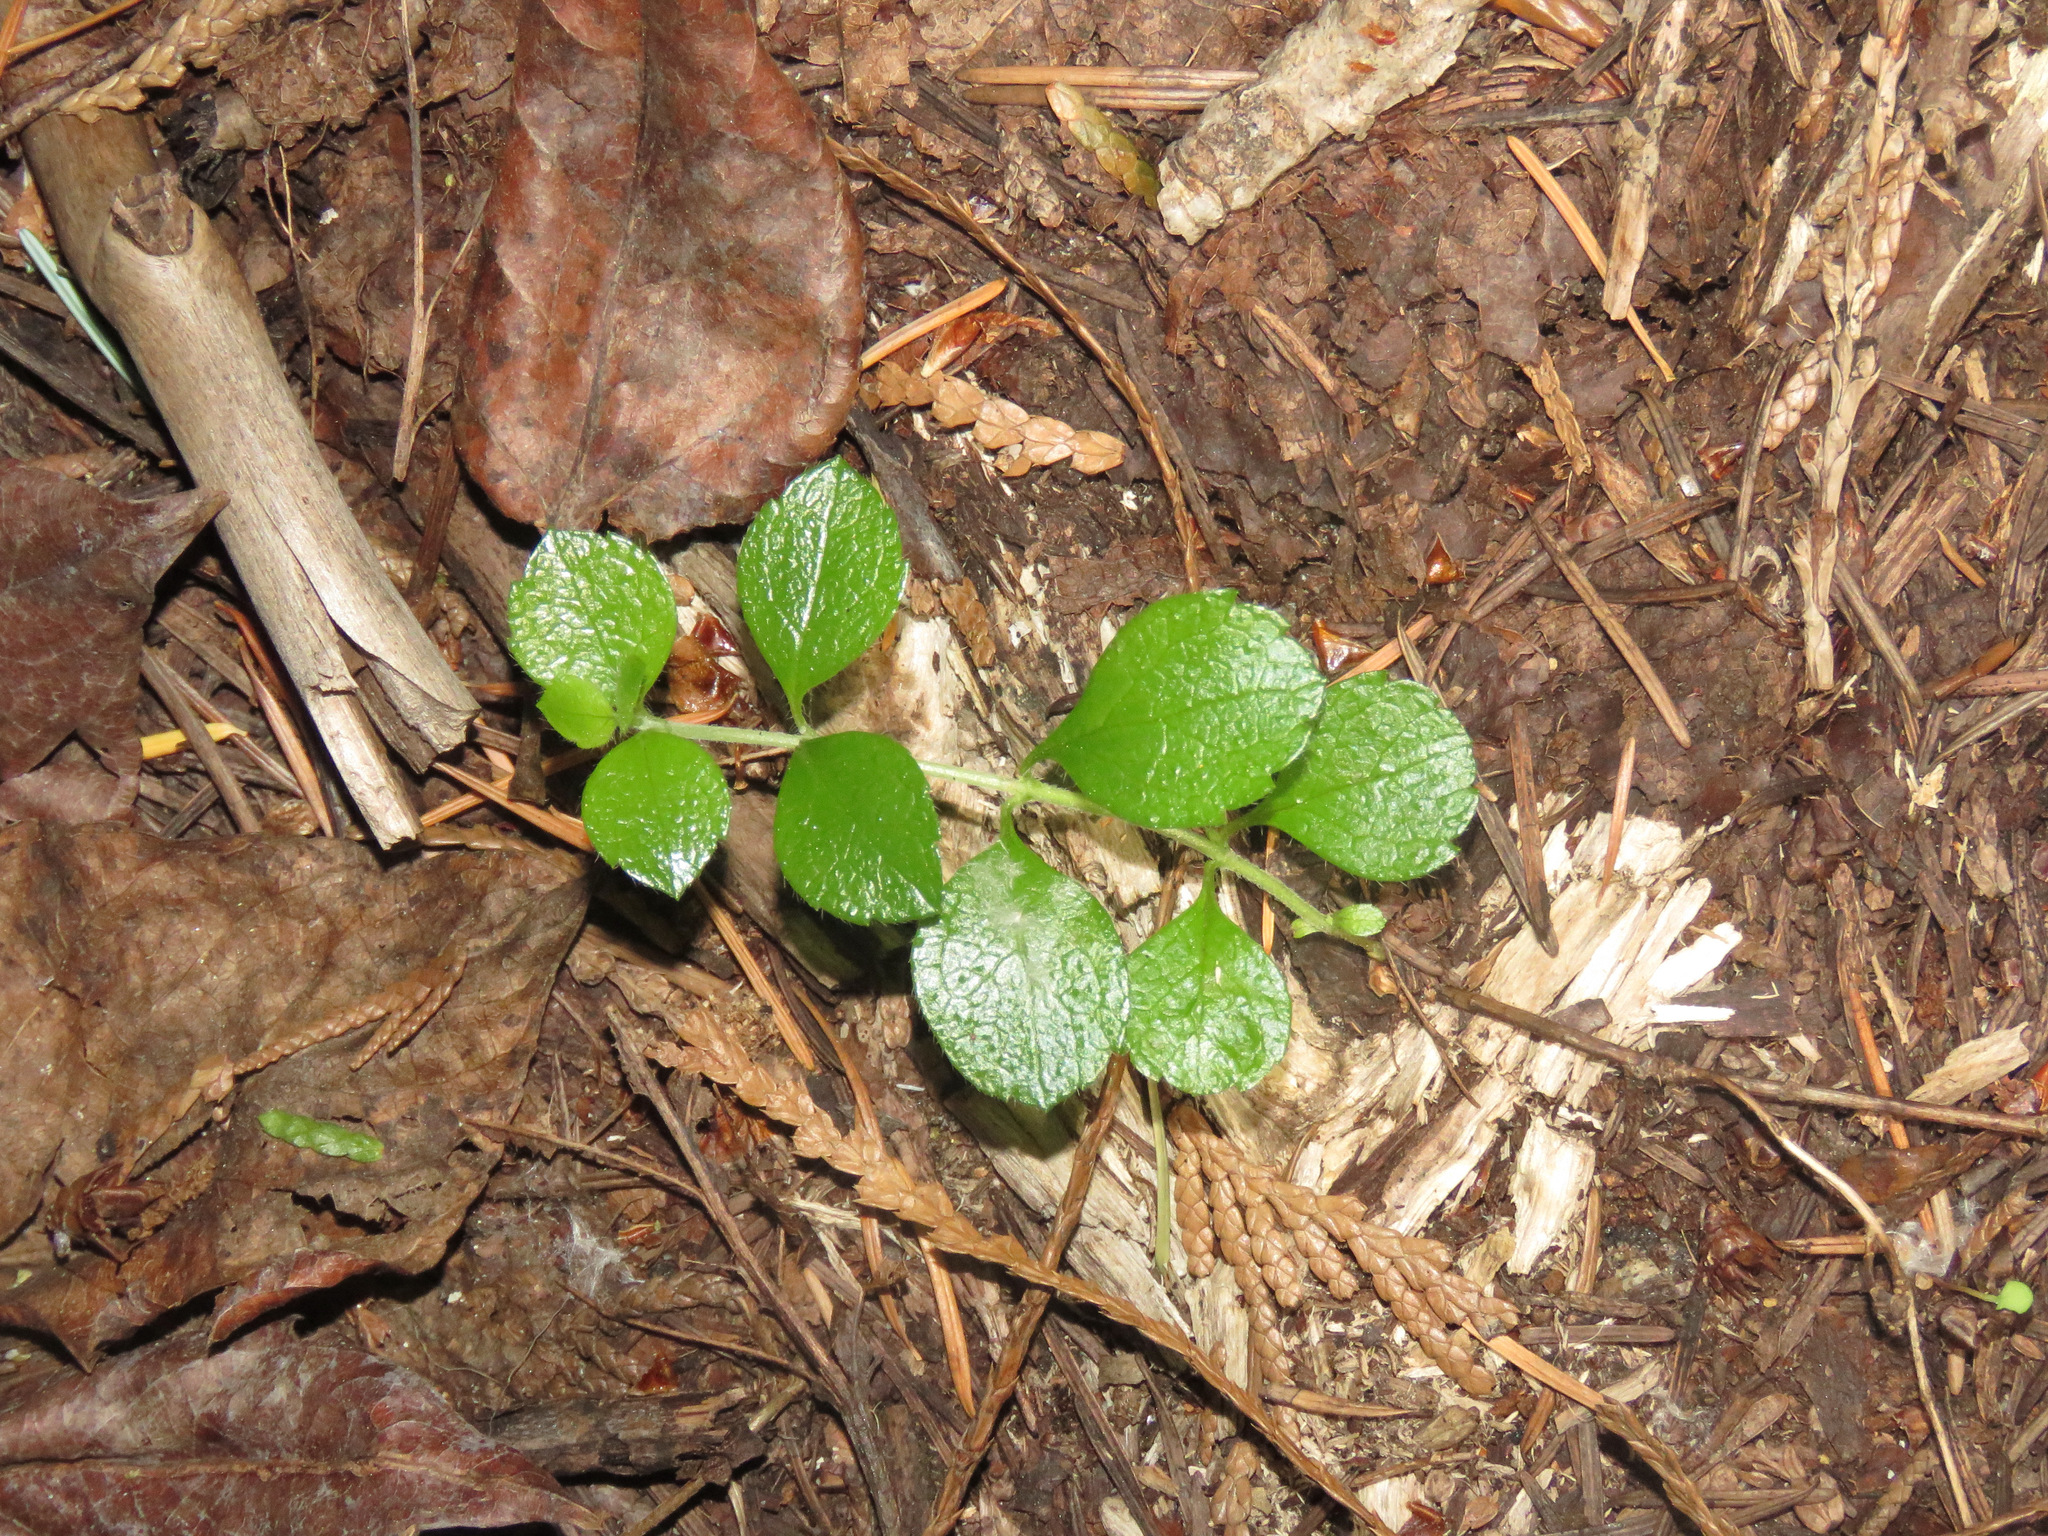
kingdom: Plantae
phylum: Tracheophyta
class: Magnoliopsida
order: Dipsacales
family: Caprifoliaceae
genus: Linnaea
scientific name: Linnaea borealis
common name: Twinflower
